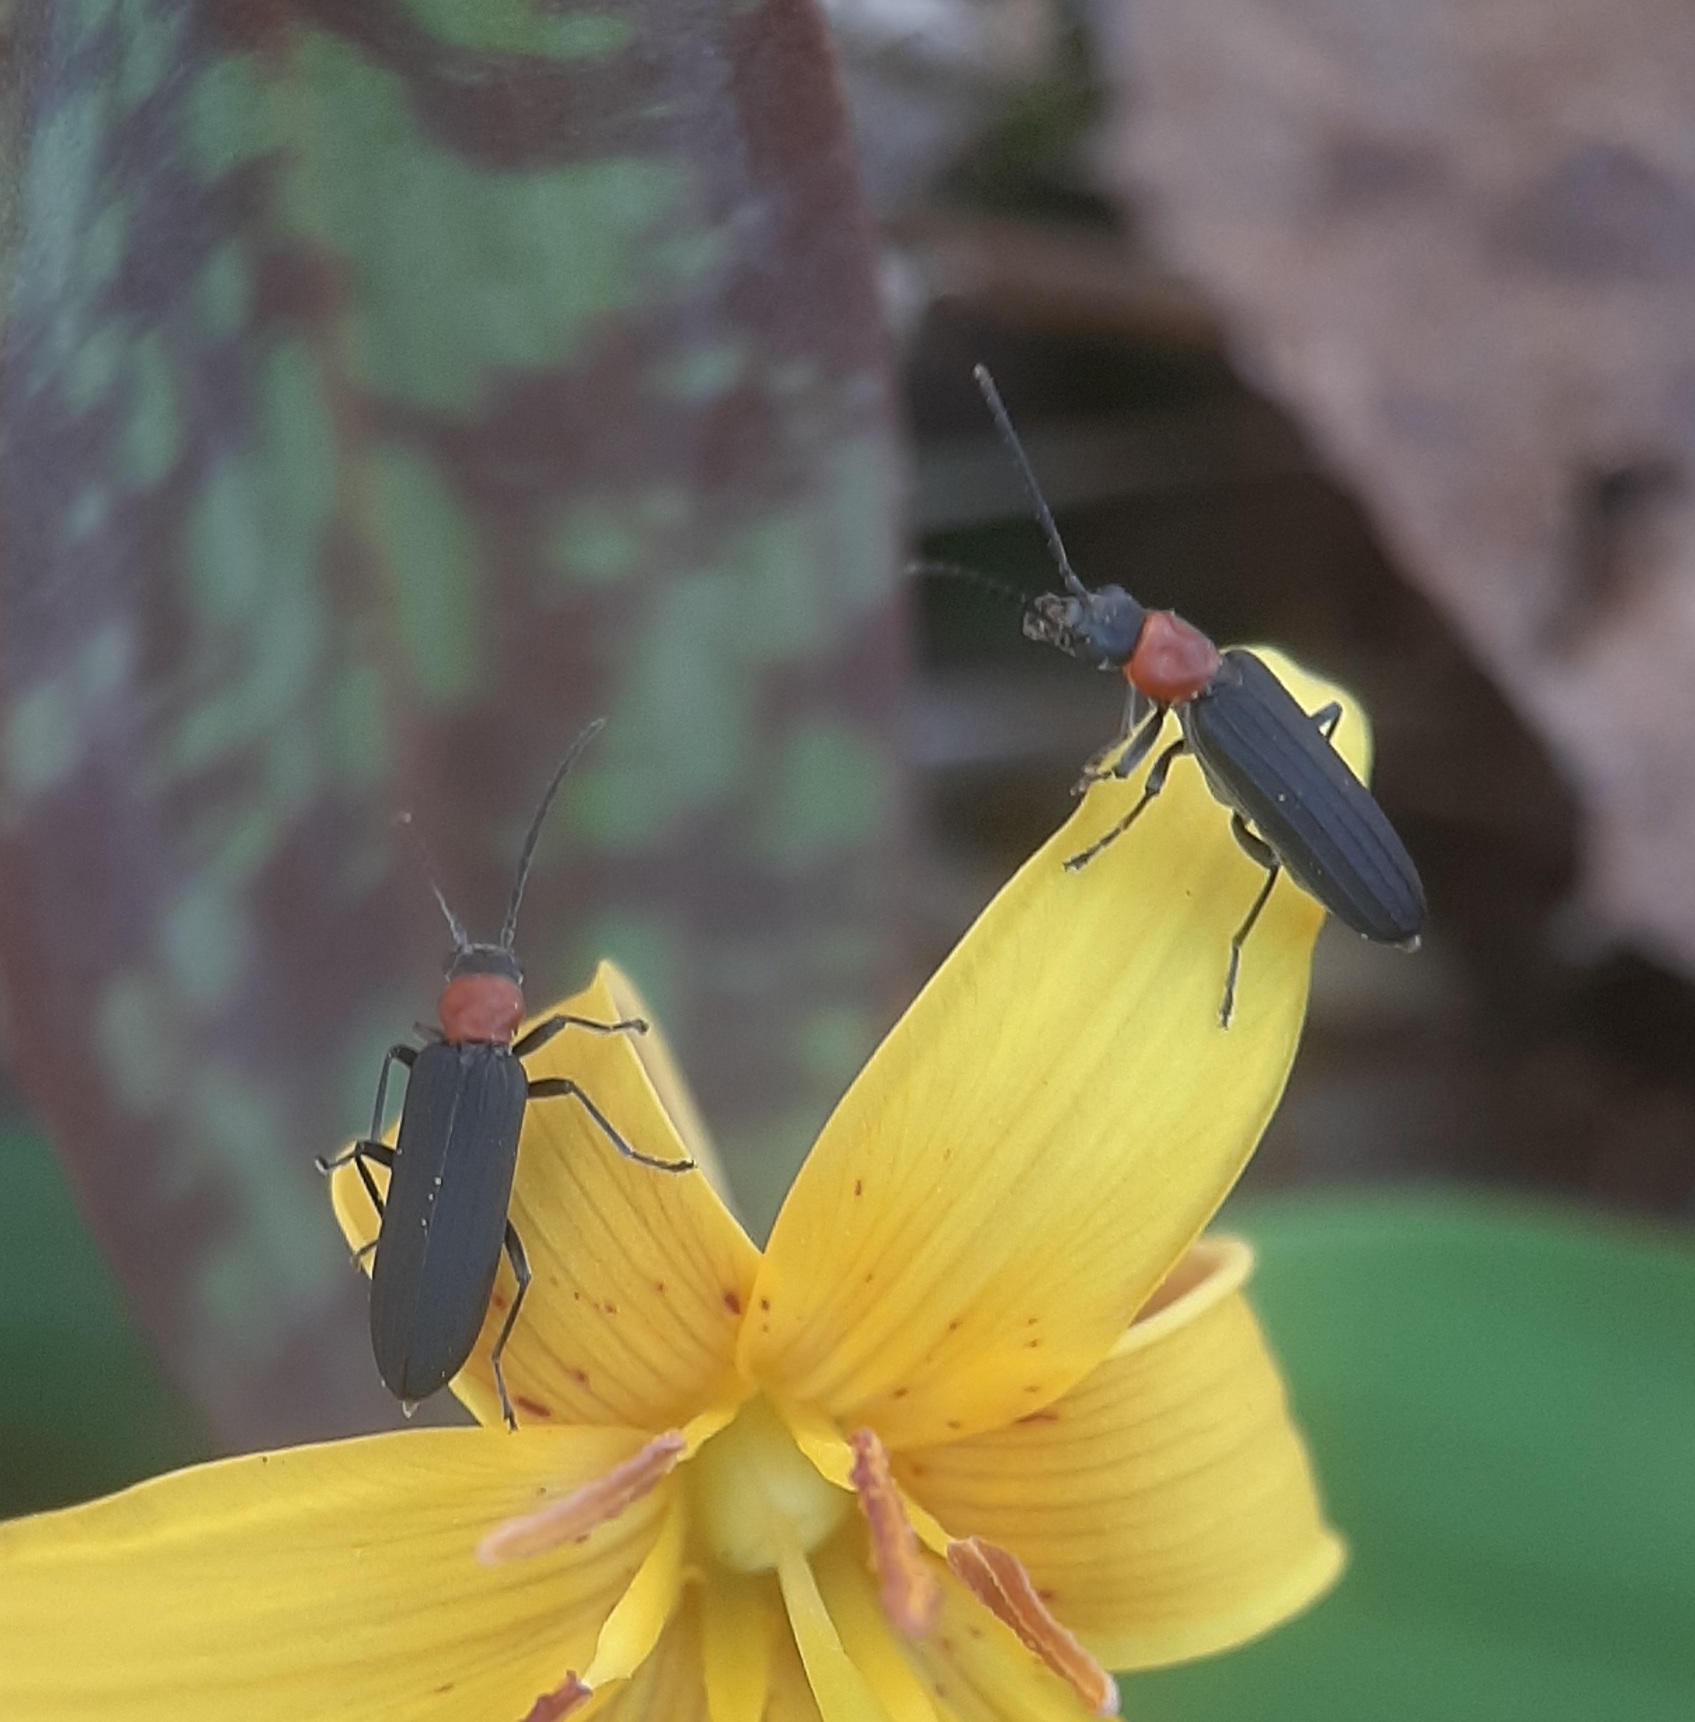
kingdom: Animalia
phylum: Arthropoda
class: Insecta
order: Coleoptera
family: Oedemeridae
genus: Ischnomera
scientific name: Ischnomera
